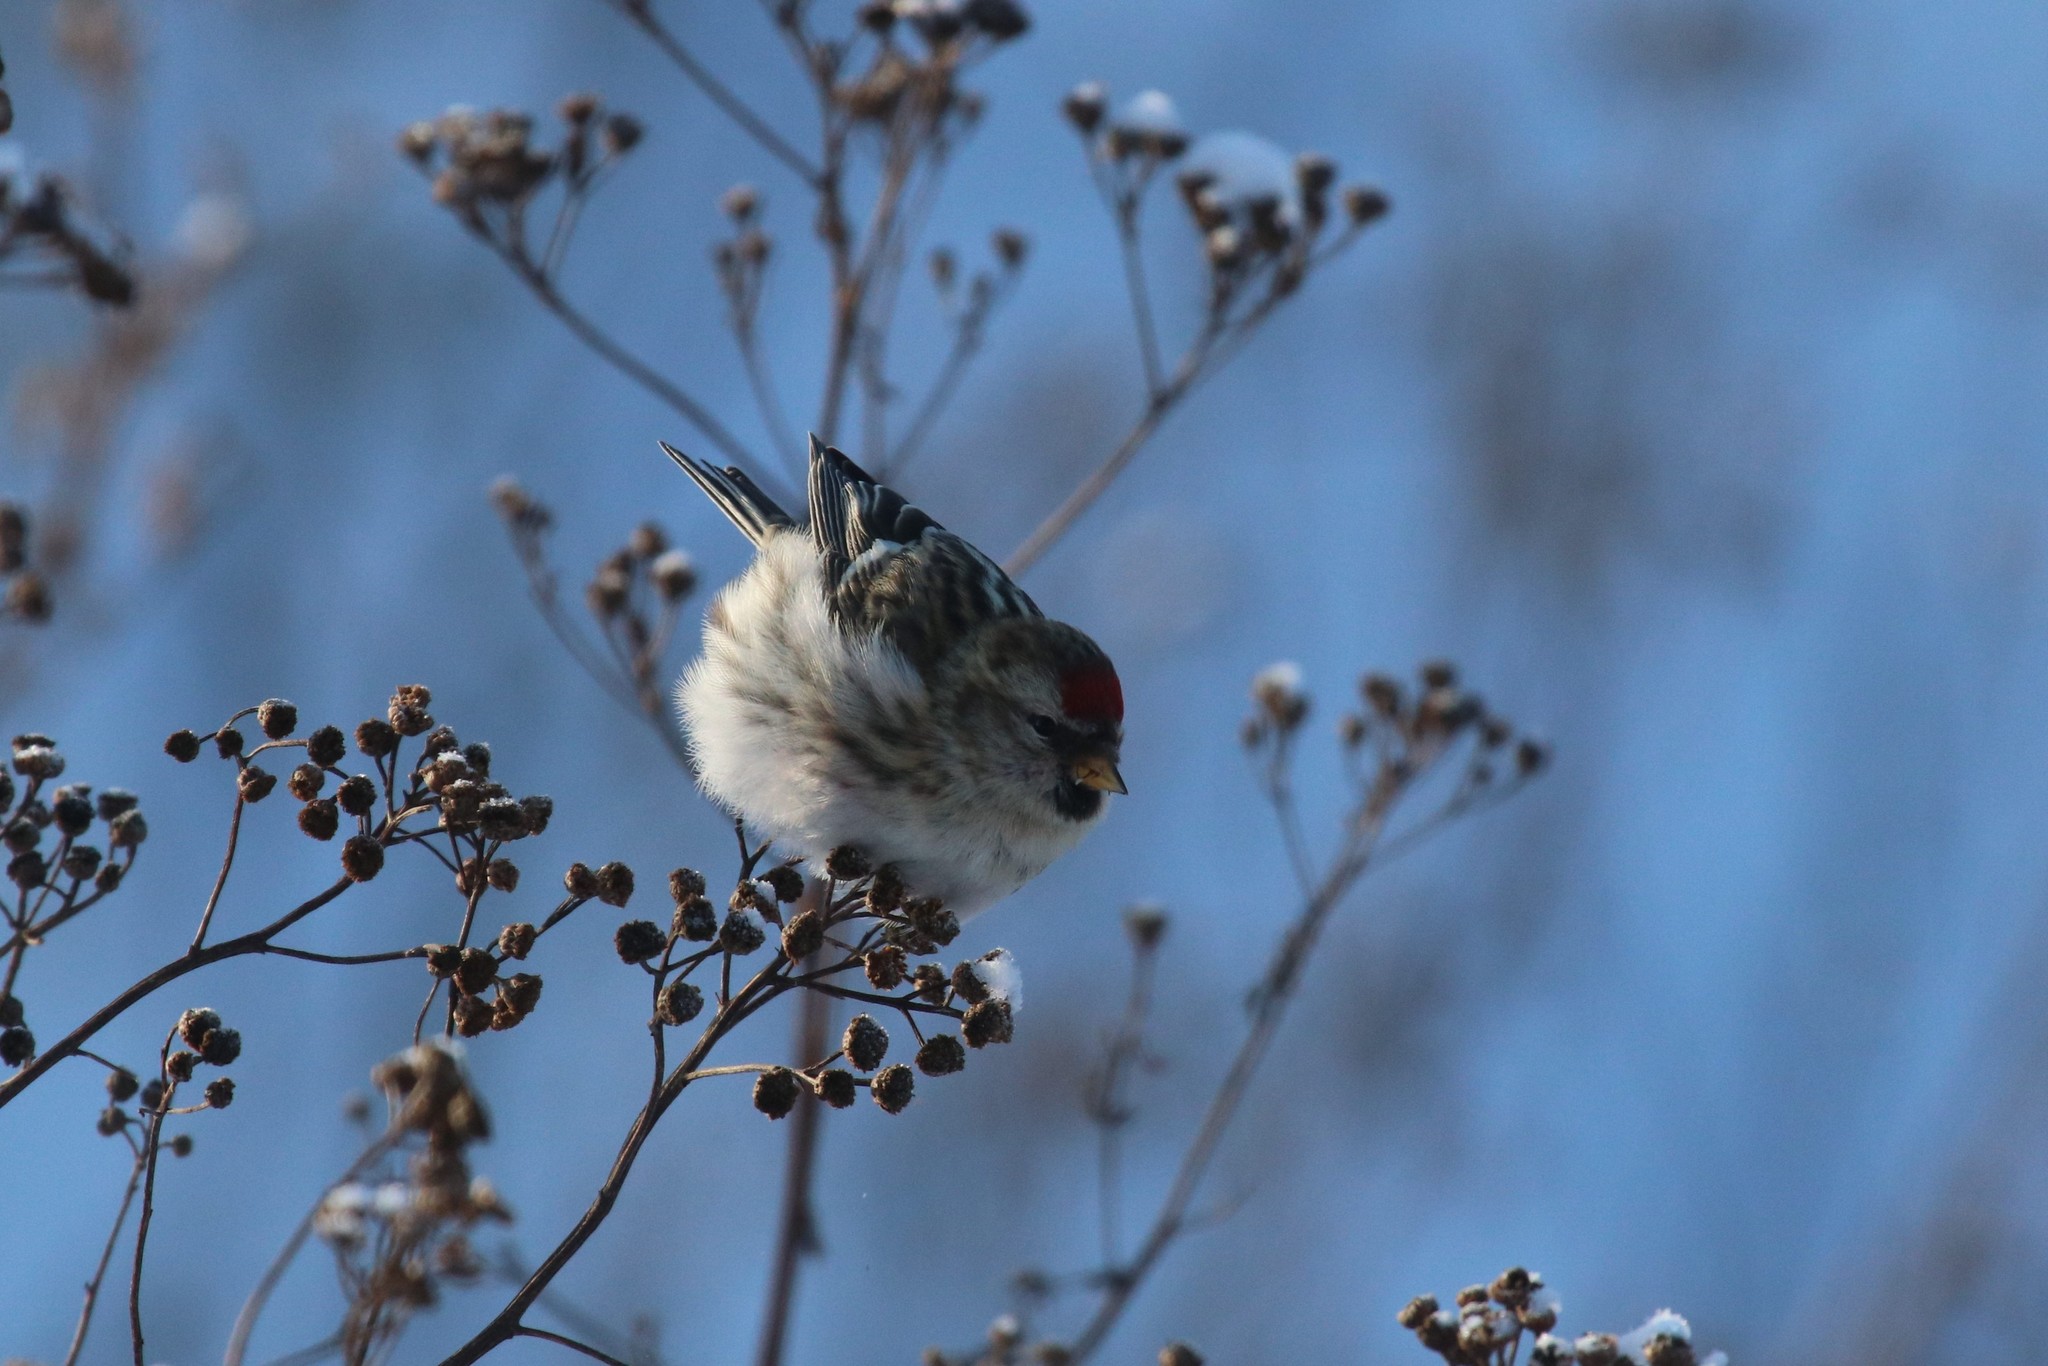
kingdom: Animalia
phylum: Chordata
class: Aves
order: Passeriformes
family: Fringillidae
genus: Acanthis
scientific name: Acanthis flammea
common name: Common redpoll
